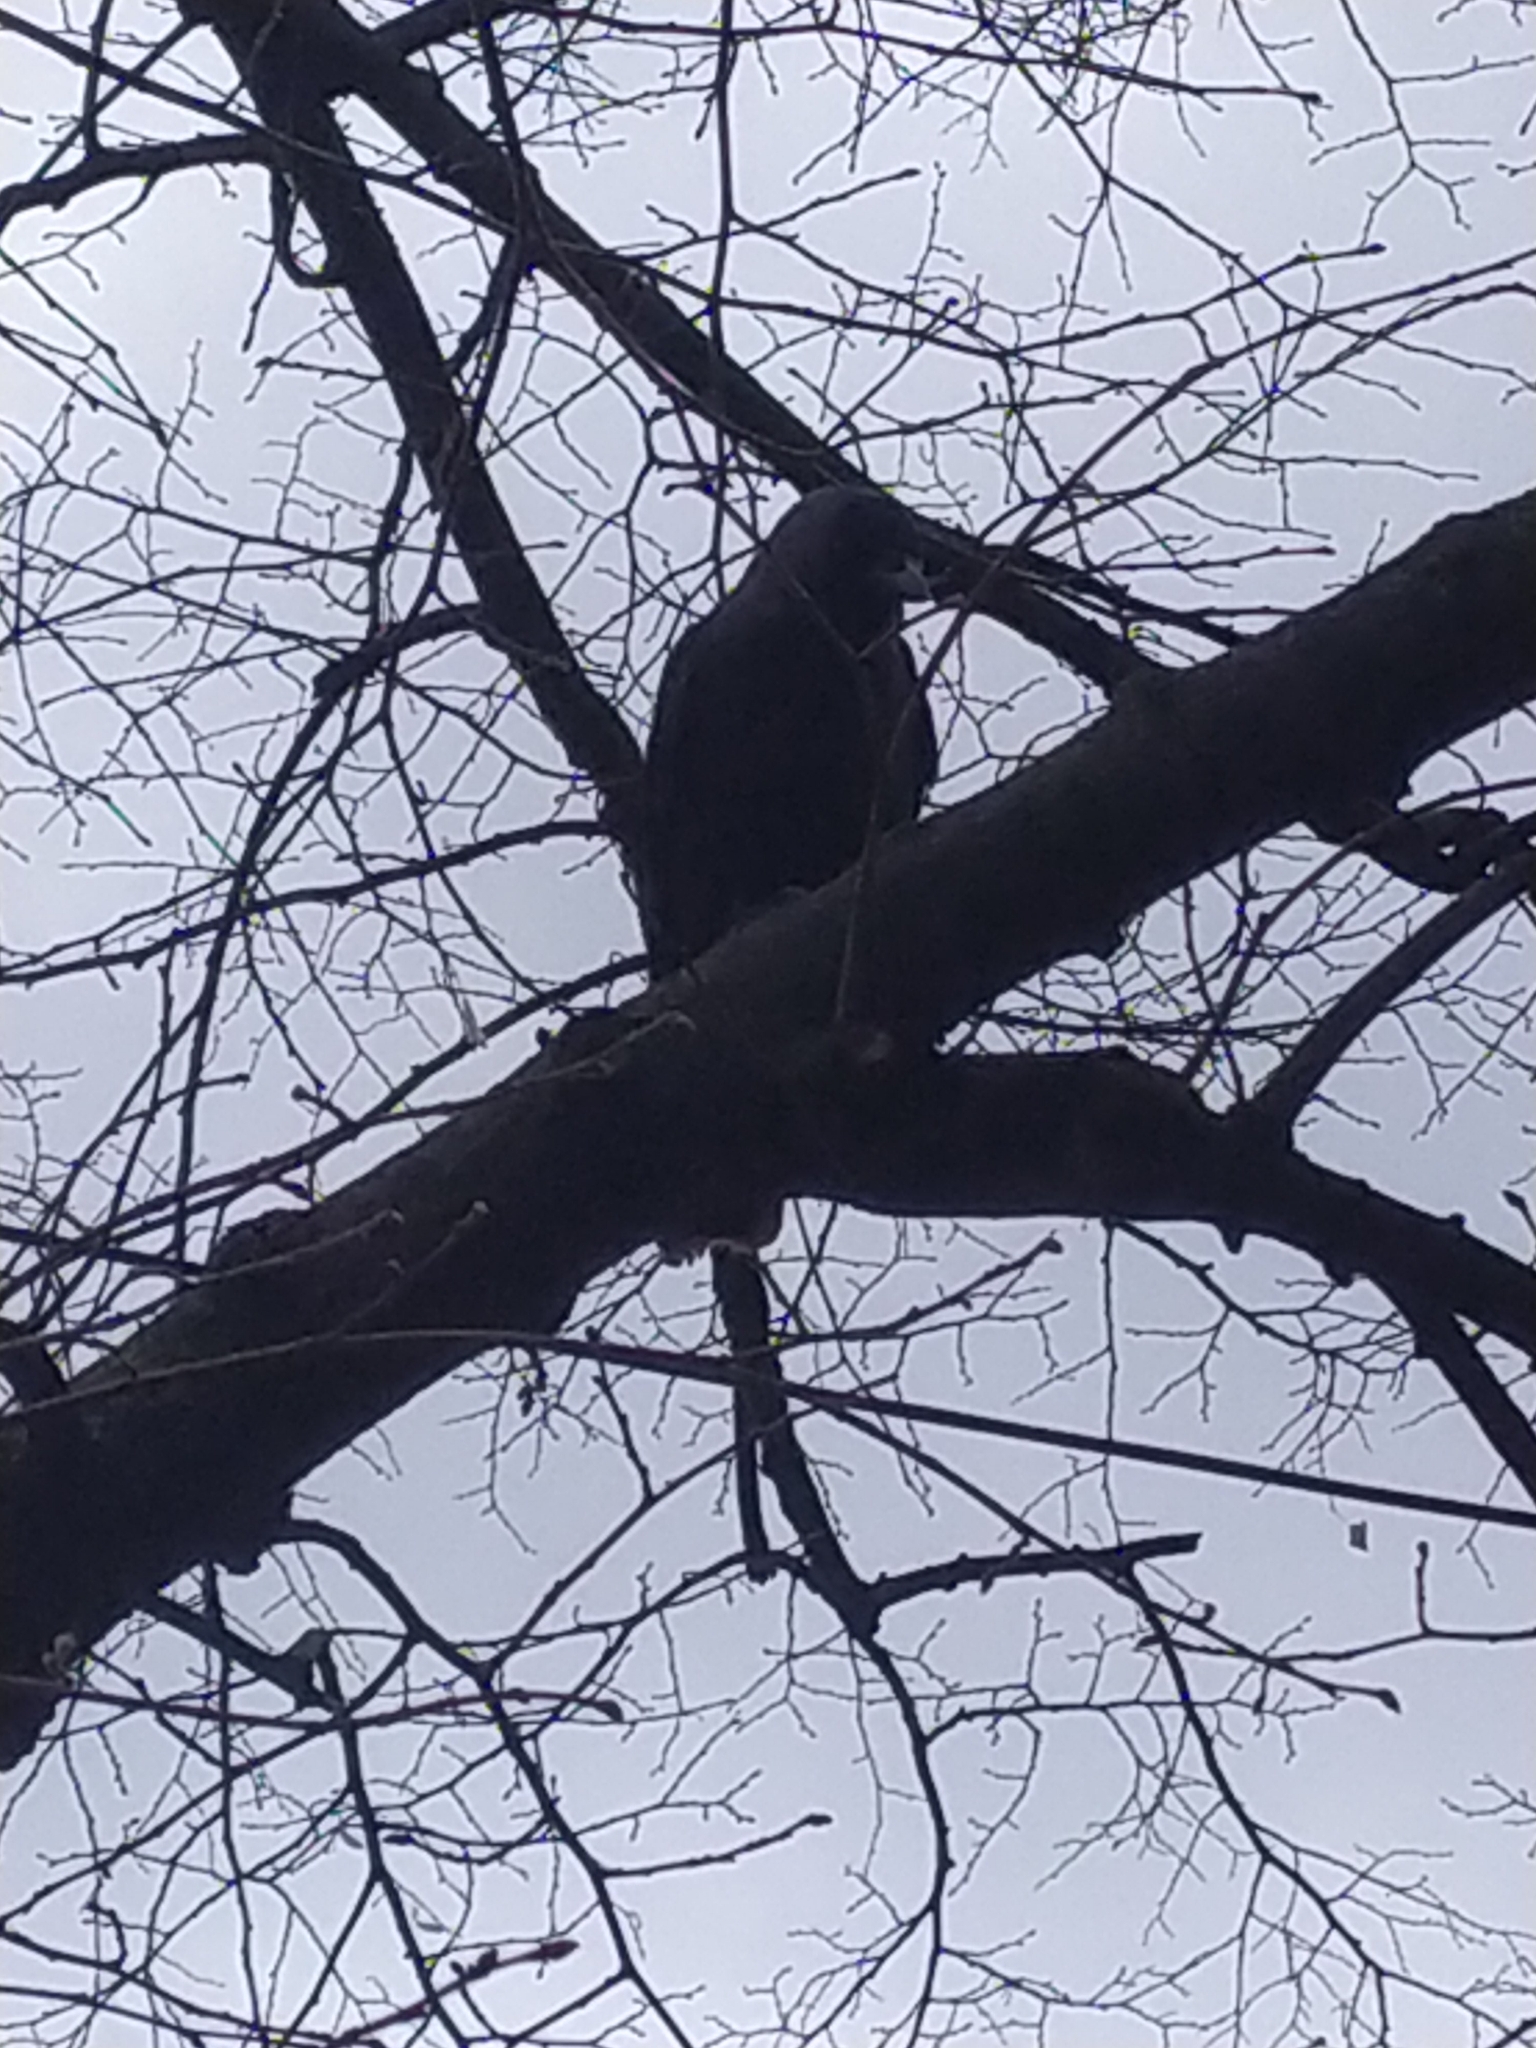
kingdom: Animalia
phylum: Chordata
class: Aves
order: Passeriformes
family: Corvidae
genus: Coloeus
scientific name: Coloeus monedula
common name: Western jackdaw
